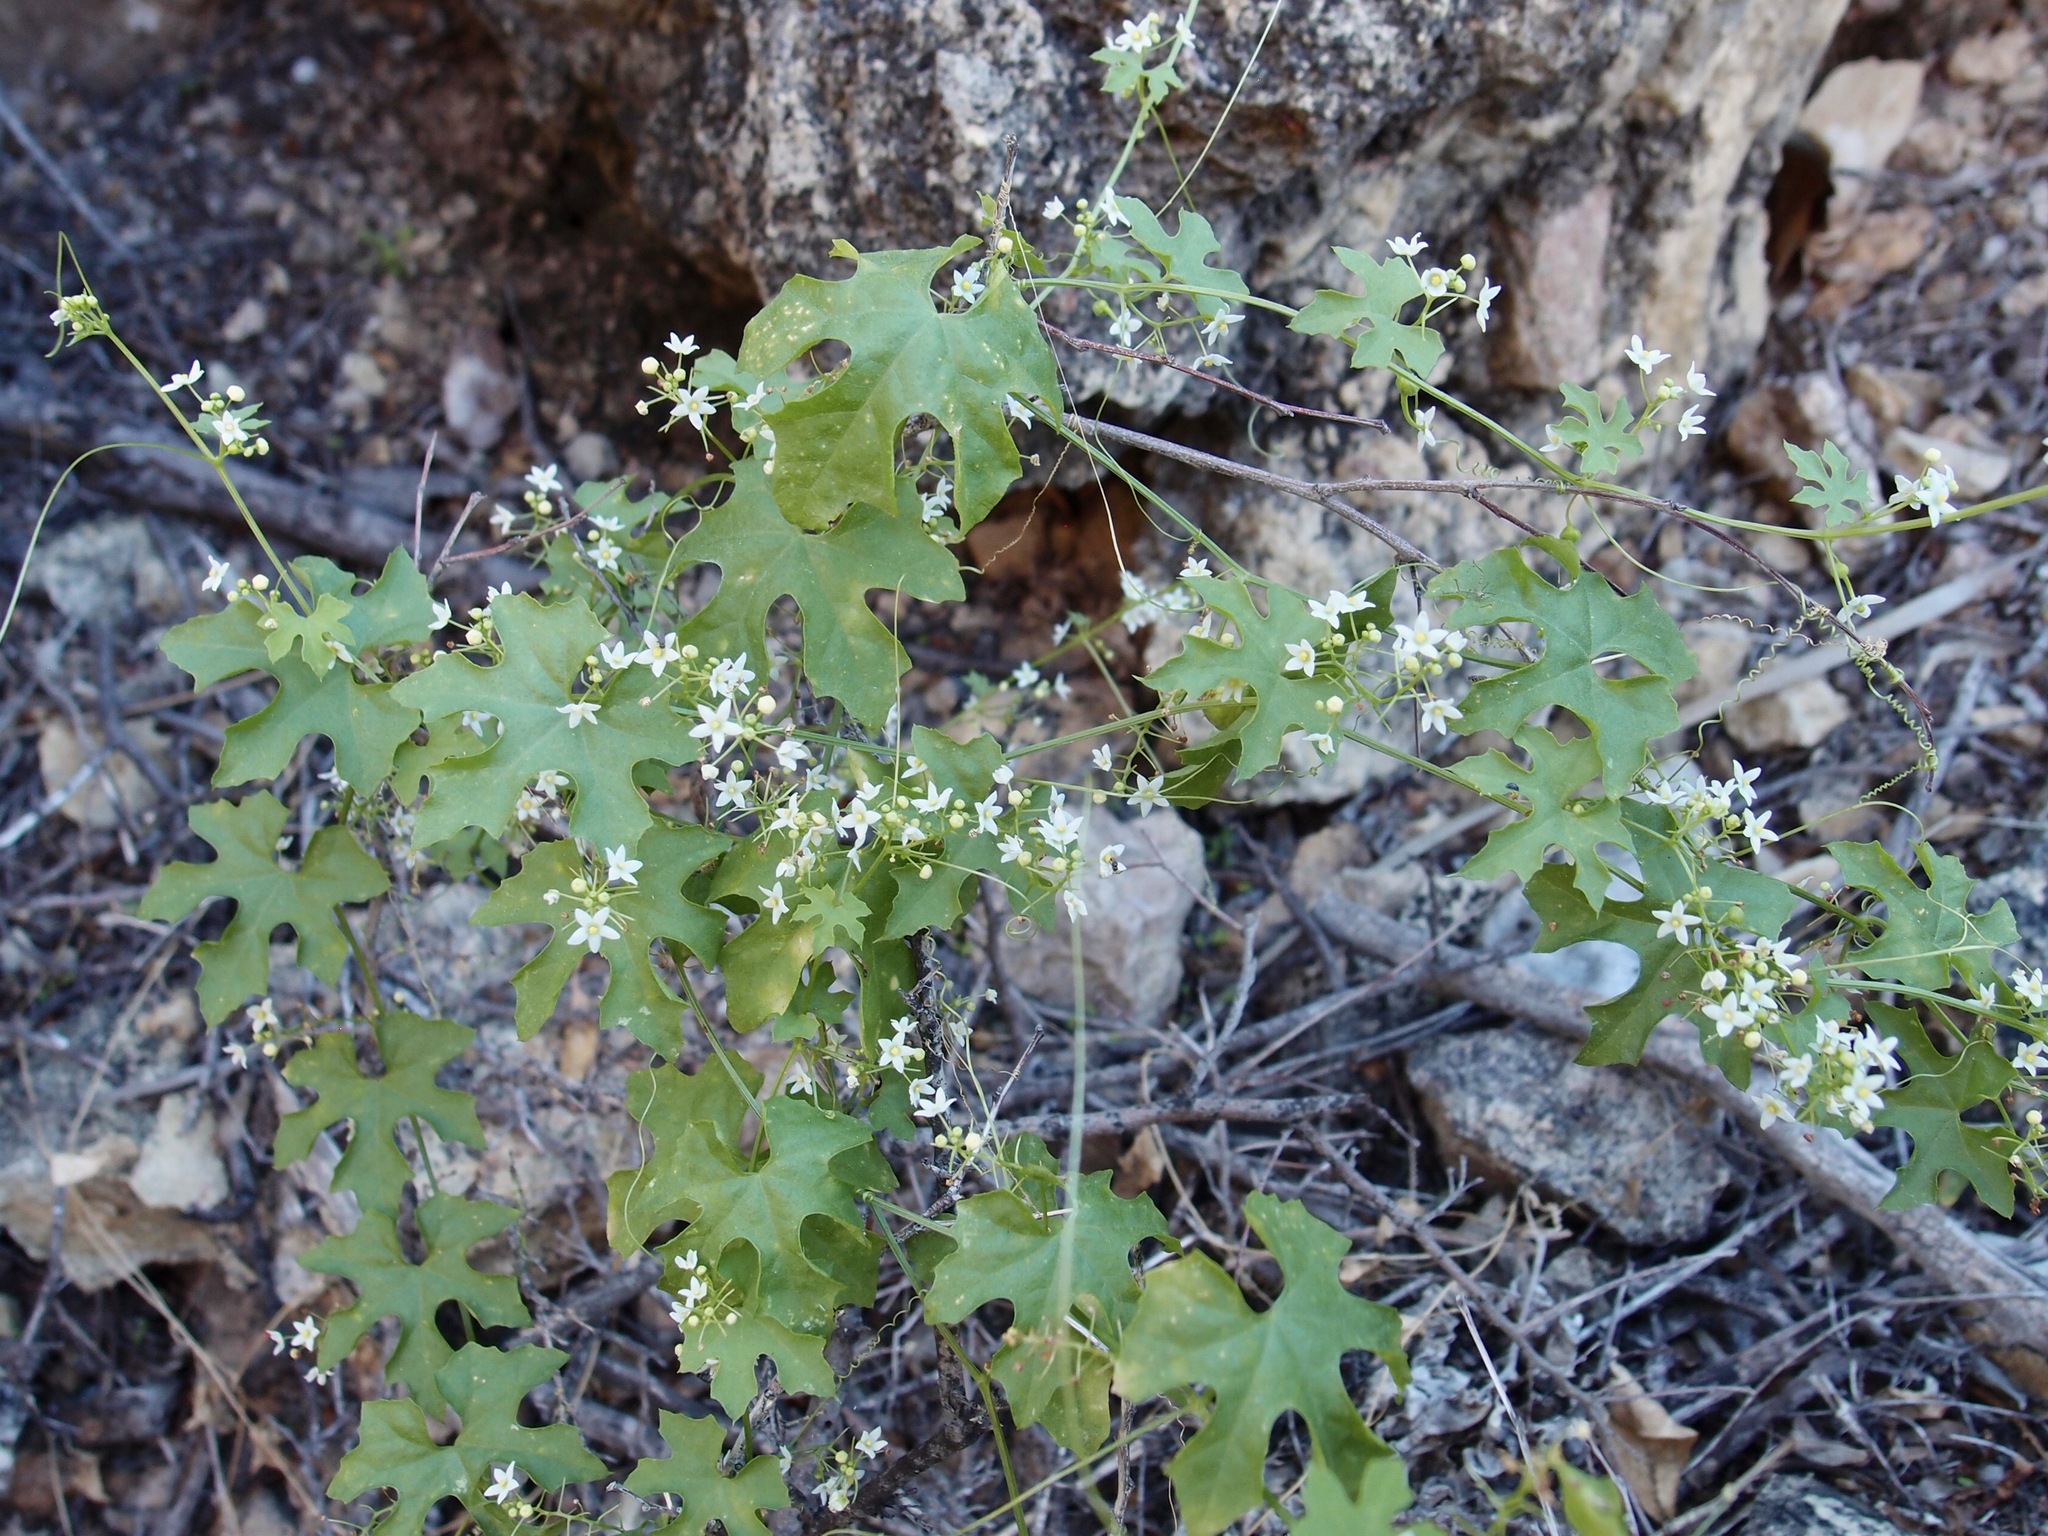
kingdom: Plantae
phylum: Tracheophyta
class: Magnoliopsida
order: Cucurbitales
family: Cucurbitaceae
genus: Echinopepon
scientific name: Echinopepon insularis
